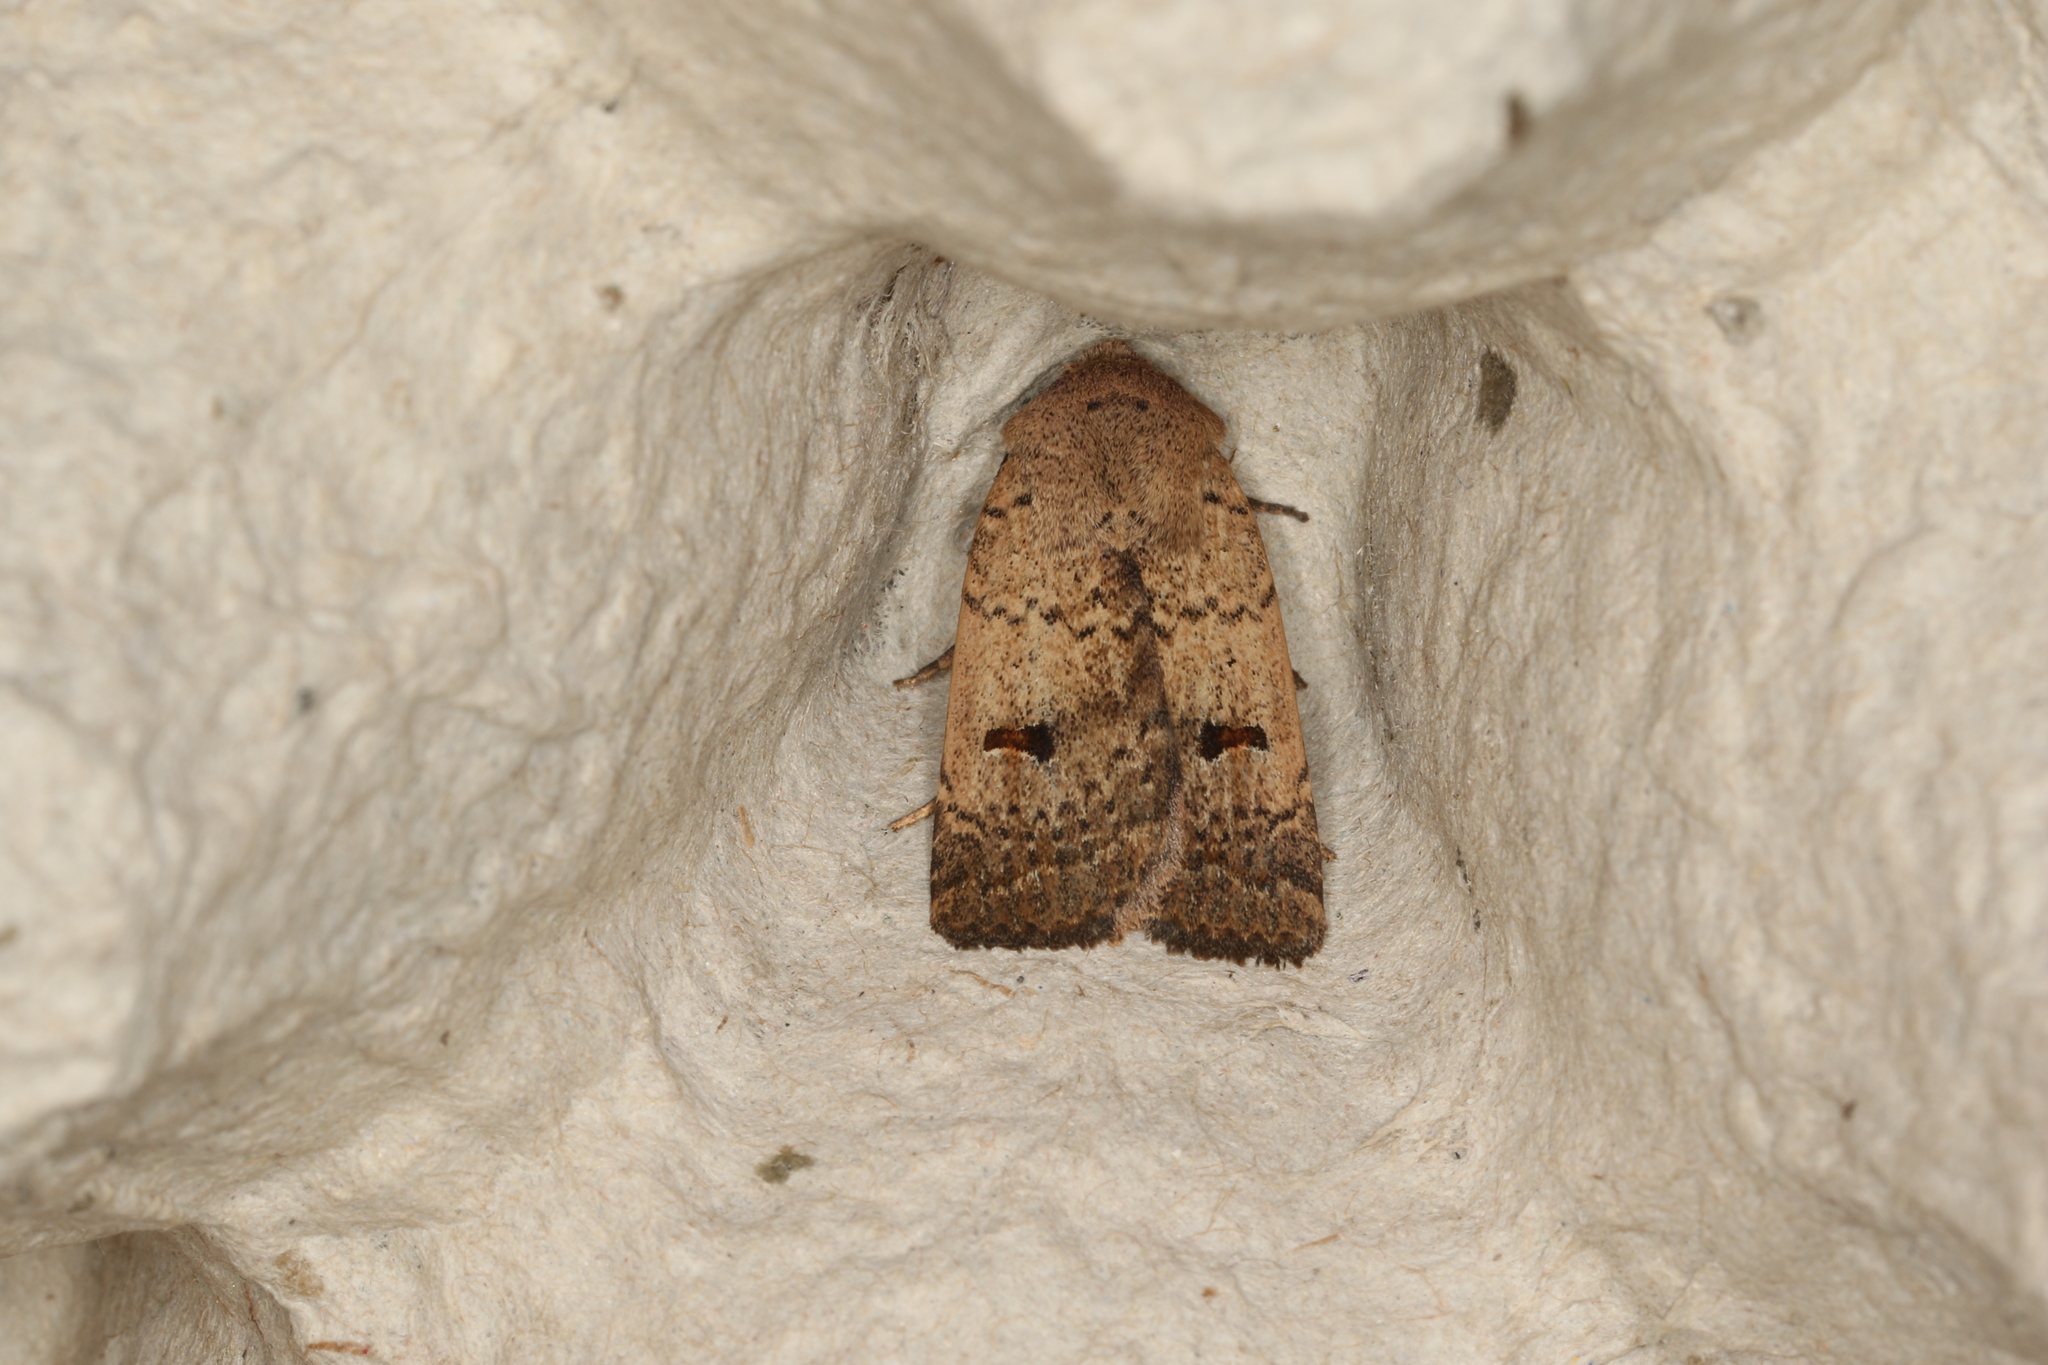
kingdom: Animalia
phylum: Arthropoda
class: Insecta
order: Lepidoptera
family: Noctuidae
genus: Proteuxoa
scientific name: Proteuxoa hypochalchis
